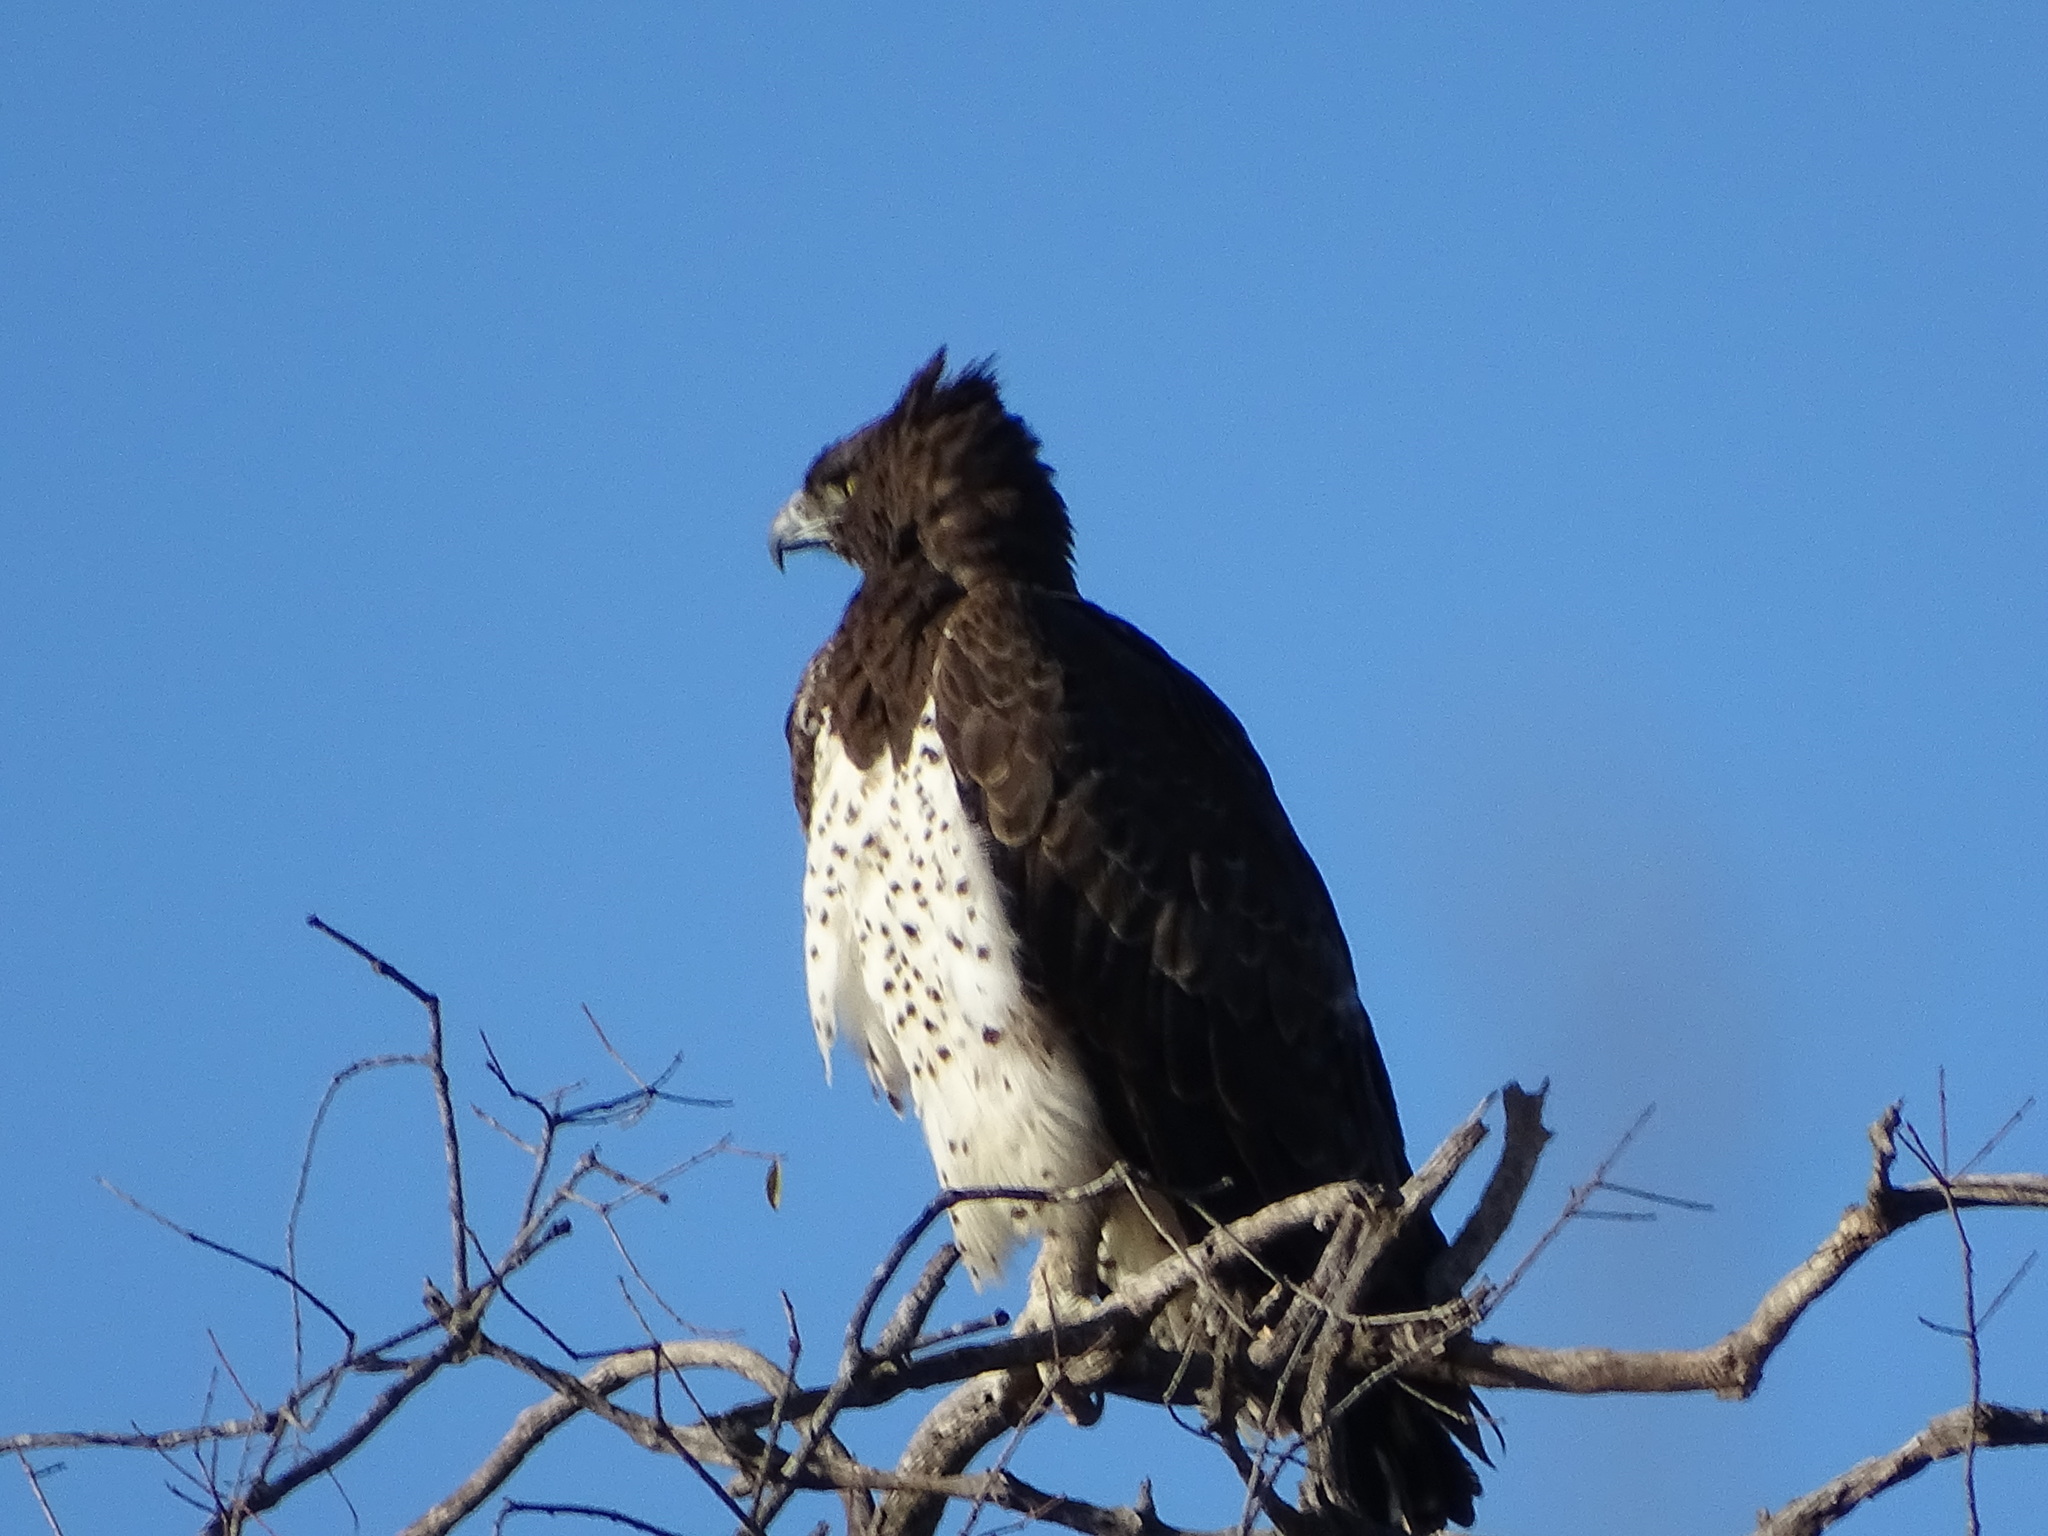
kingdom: Animalia
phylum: Chordata
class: Aves
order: Accipitriformes
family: Accipitridae
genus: Polemaetus
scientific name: Polemaetus bellicosus
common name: Martial eagle
